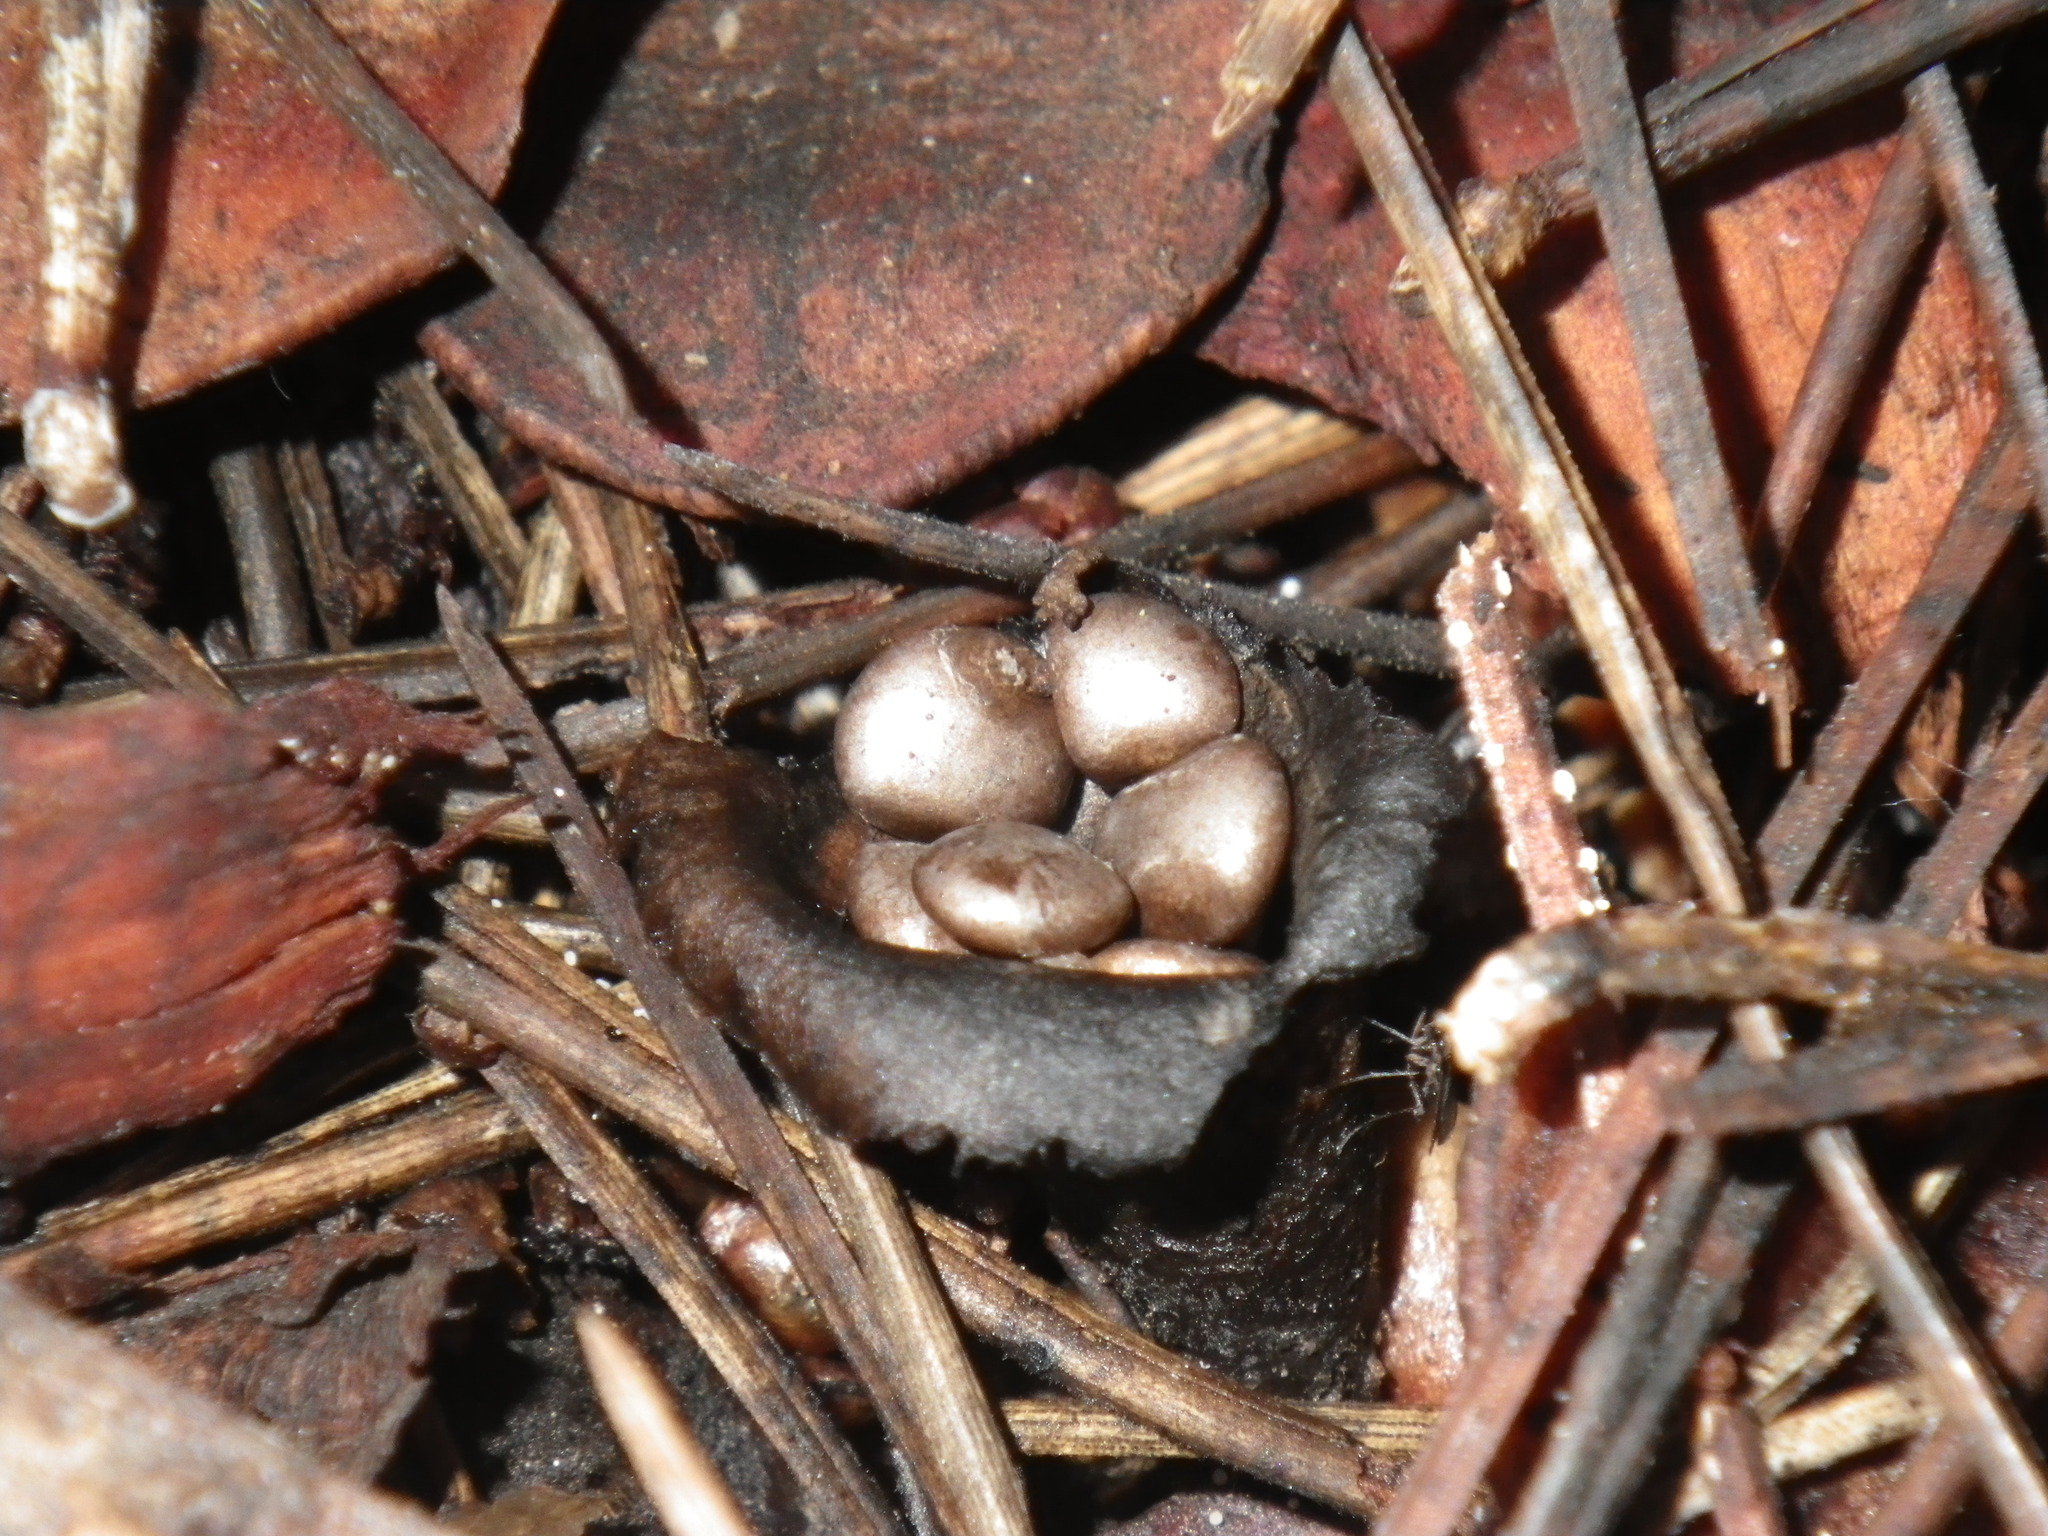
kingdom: Fungi
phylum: Basidiomycota
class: Agaricomycetes
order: Agaricales
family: Agaricaceae
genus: Cyathus
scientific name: Cyathus olla
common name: Field bird's nest
